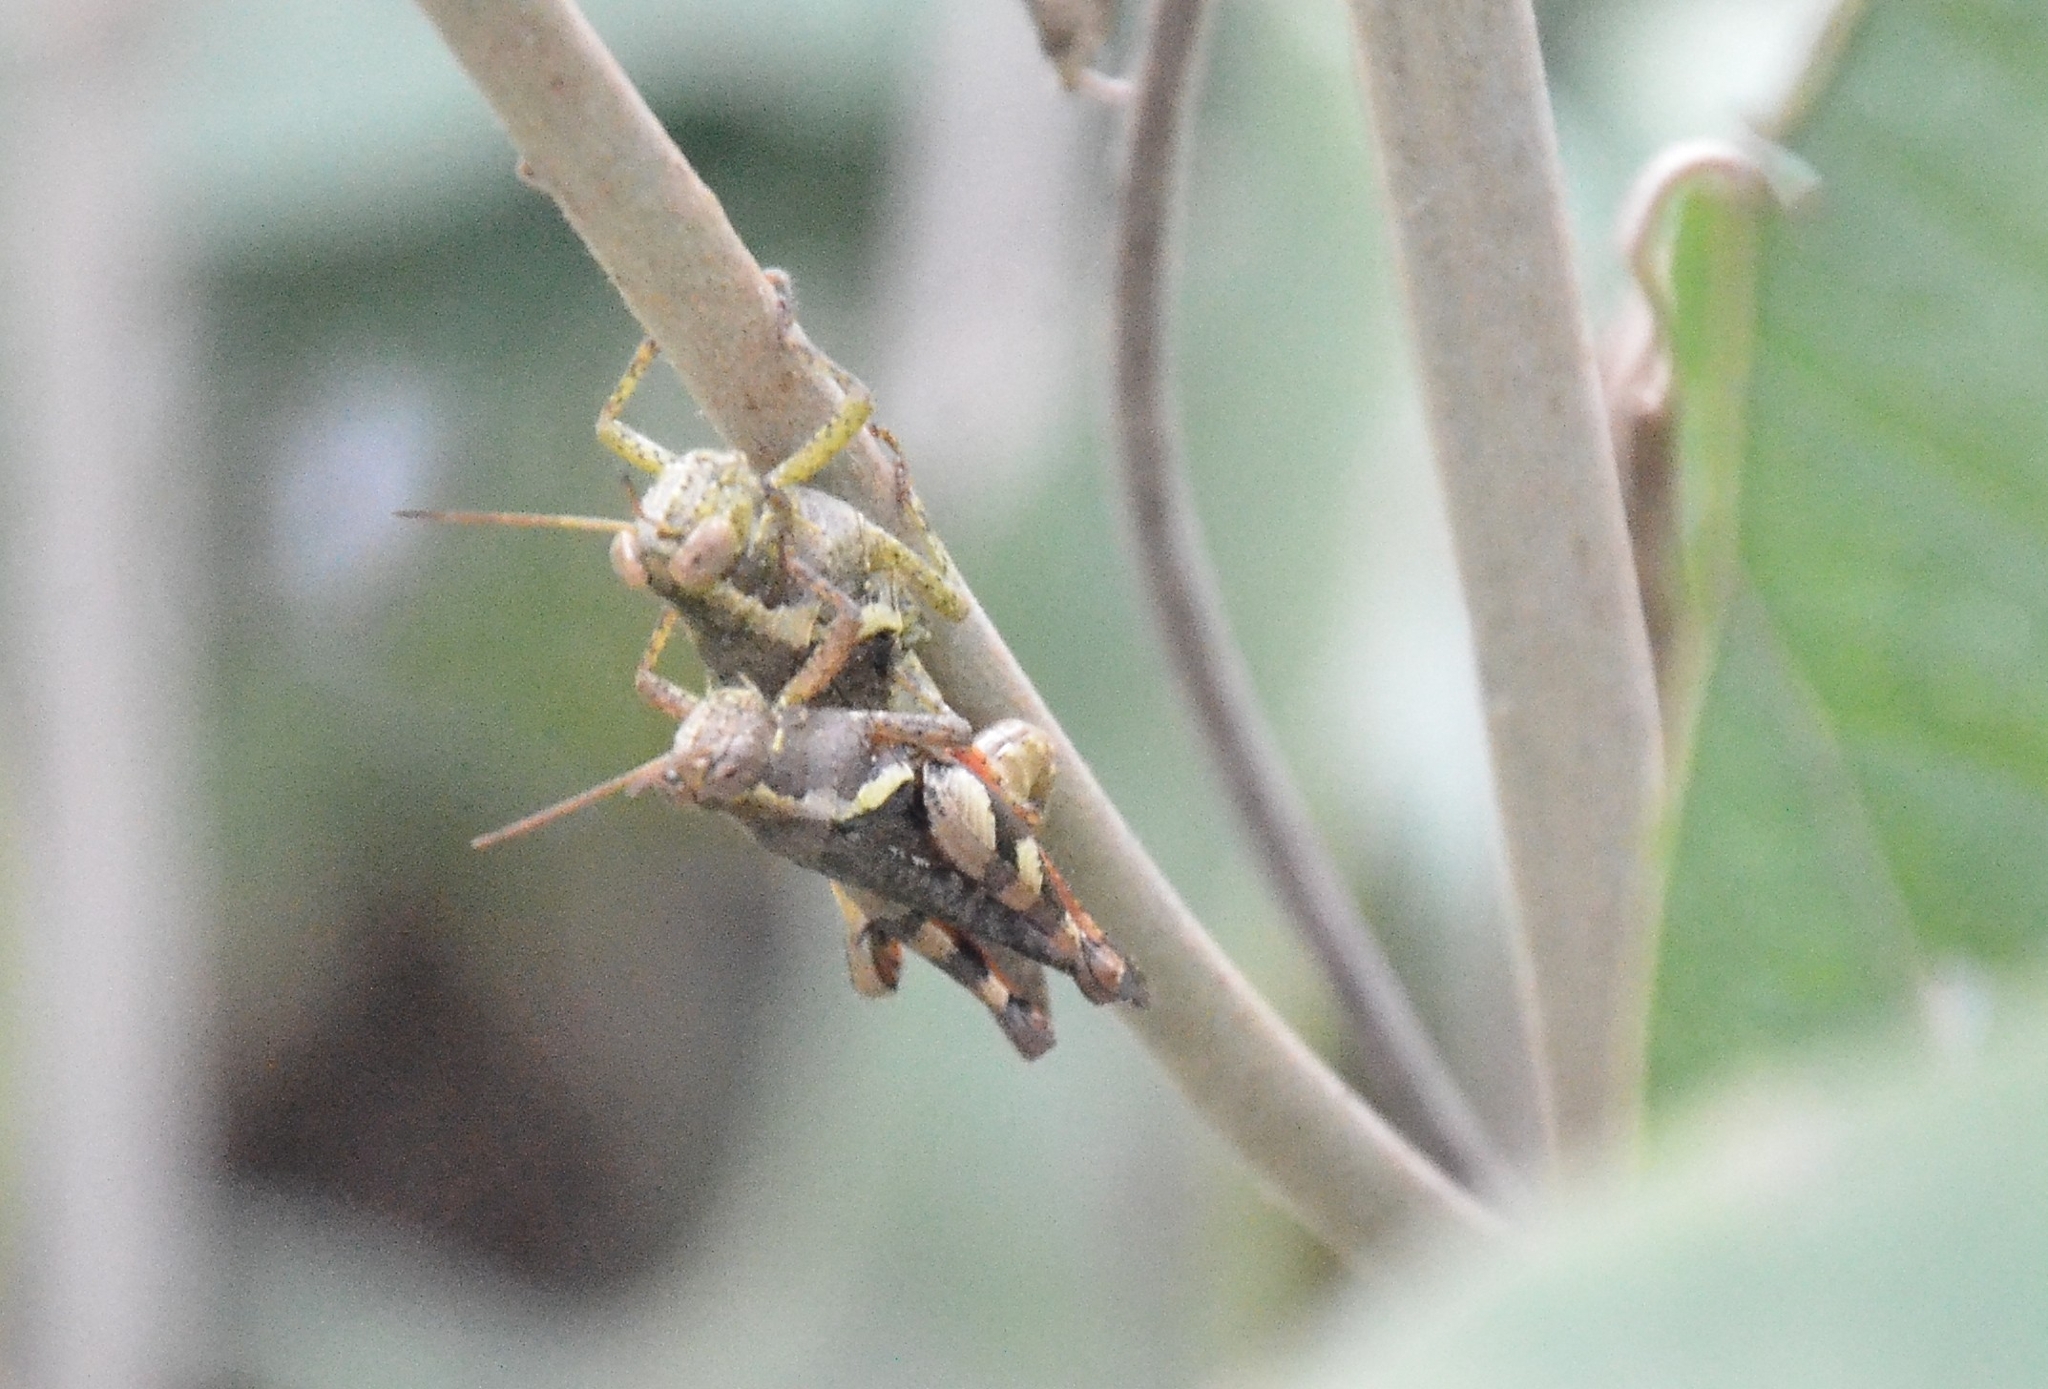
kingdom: Animalia
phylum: Arthropoda
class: Insecta
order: Orthoptera
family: Acrididae
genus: Xenocatantops
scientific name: Xenocatantops humile
